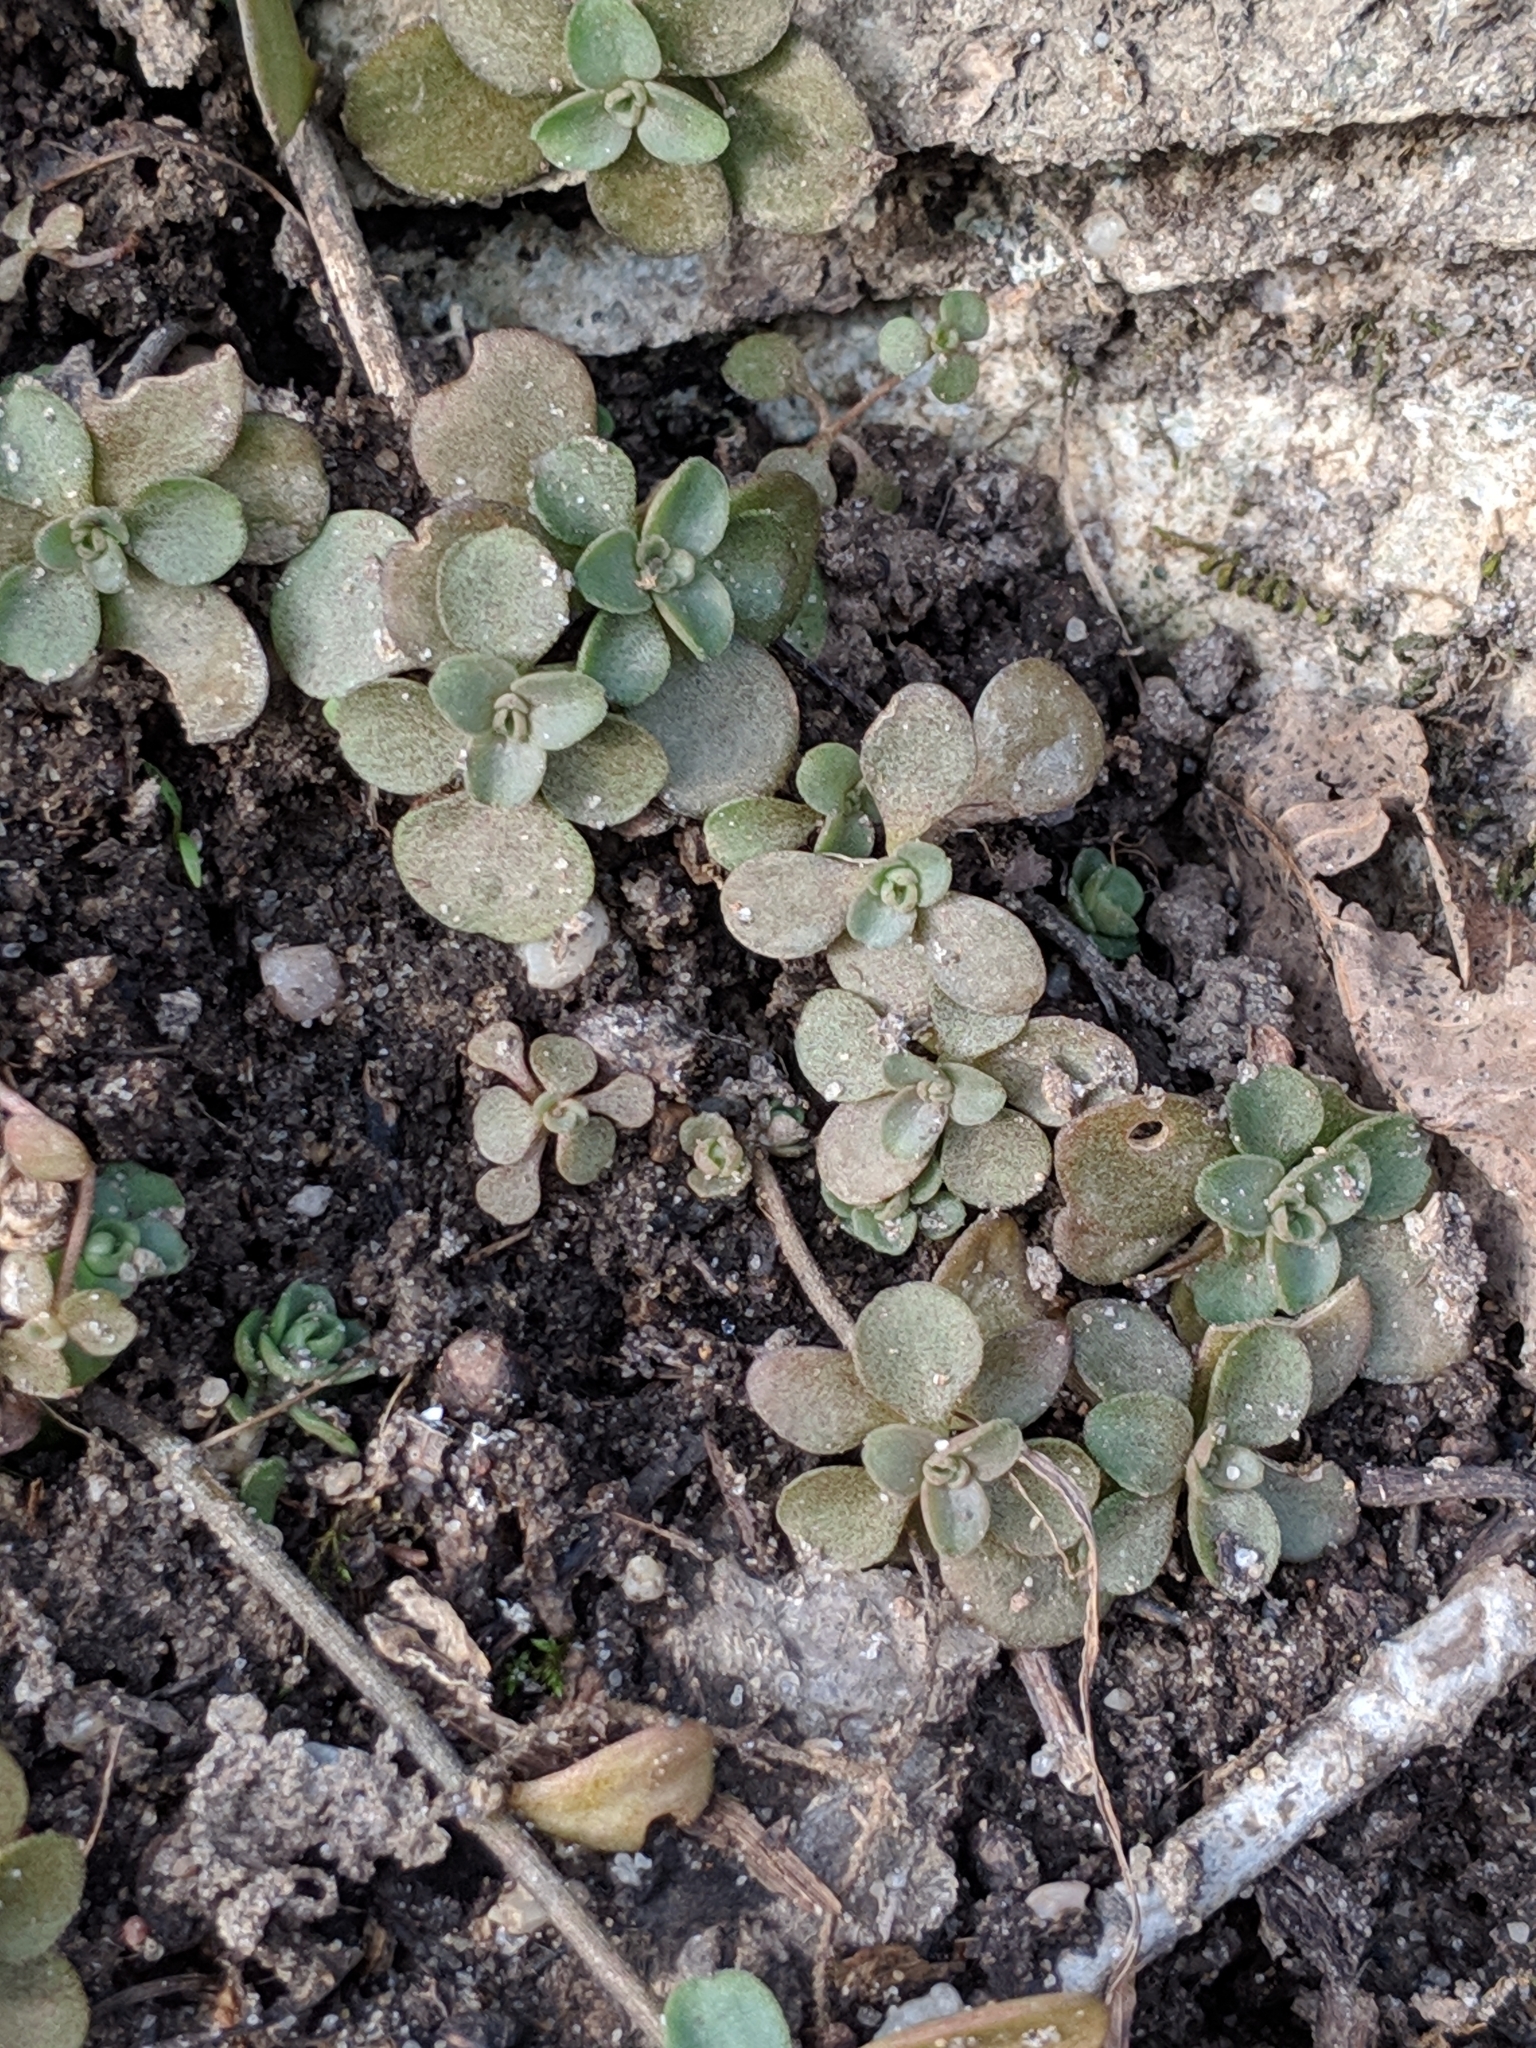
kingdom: Plantae
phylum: Tracheophyta
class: Magnoliopsida
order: Saxifragales
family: Crassulaceae
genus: Sedum
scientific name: Sedum ternatum
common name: Wild stonecrop
